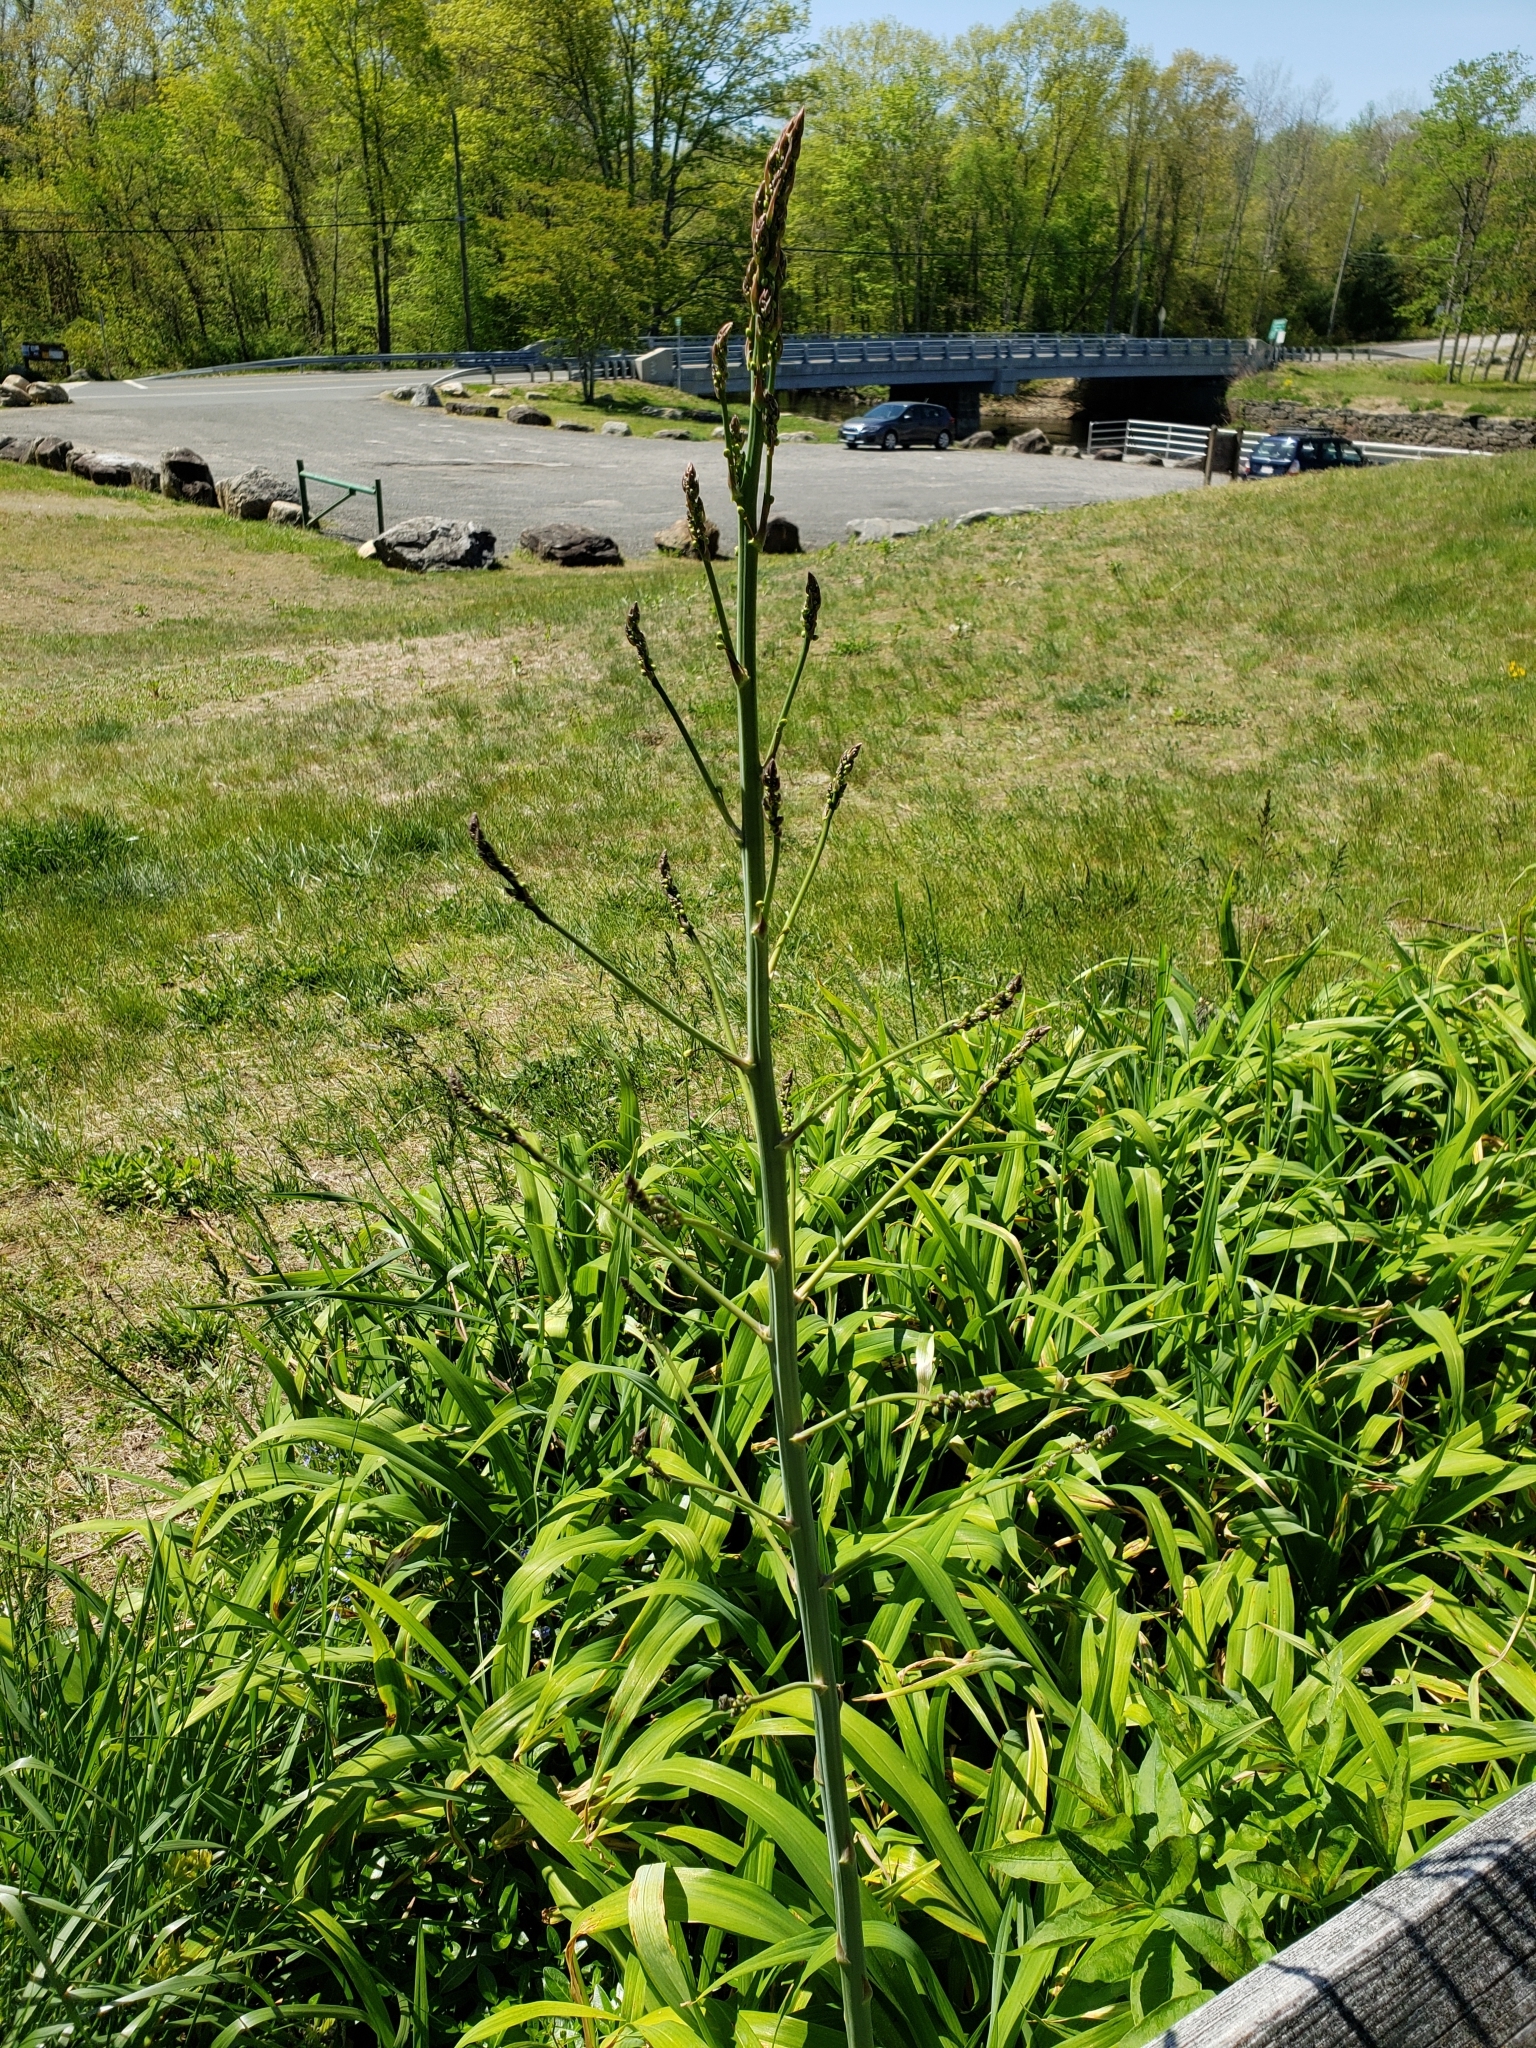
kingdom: Plantae
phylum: Tracheophyta
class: Liliopsida
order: Asparagales
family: Asparagaceae
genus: Asparagus
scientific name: Asparagus officinalis
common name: Garden asparagus
